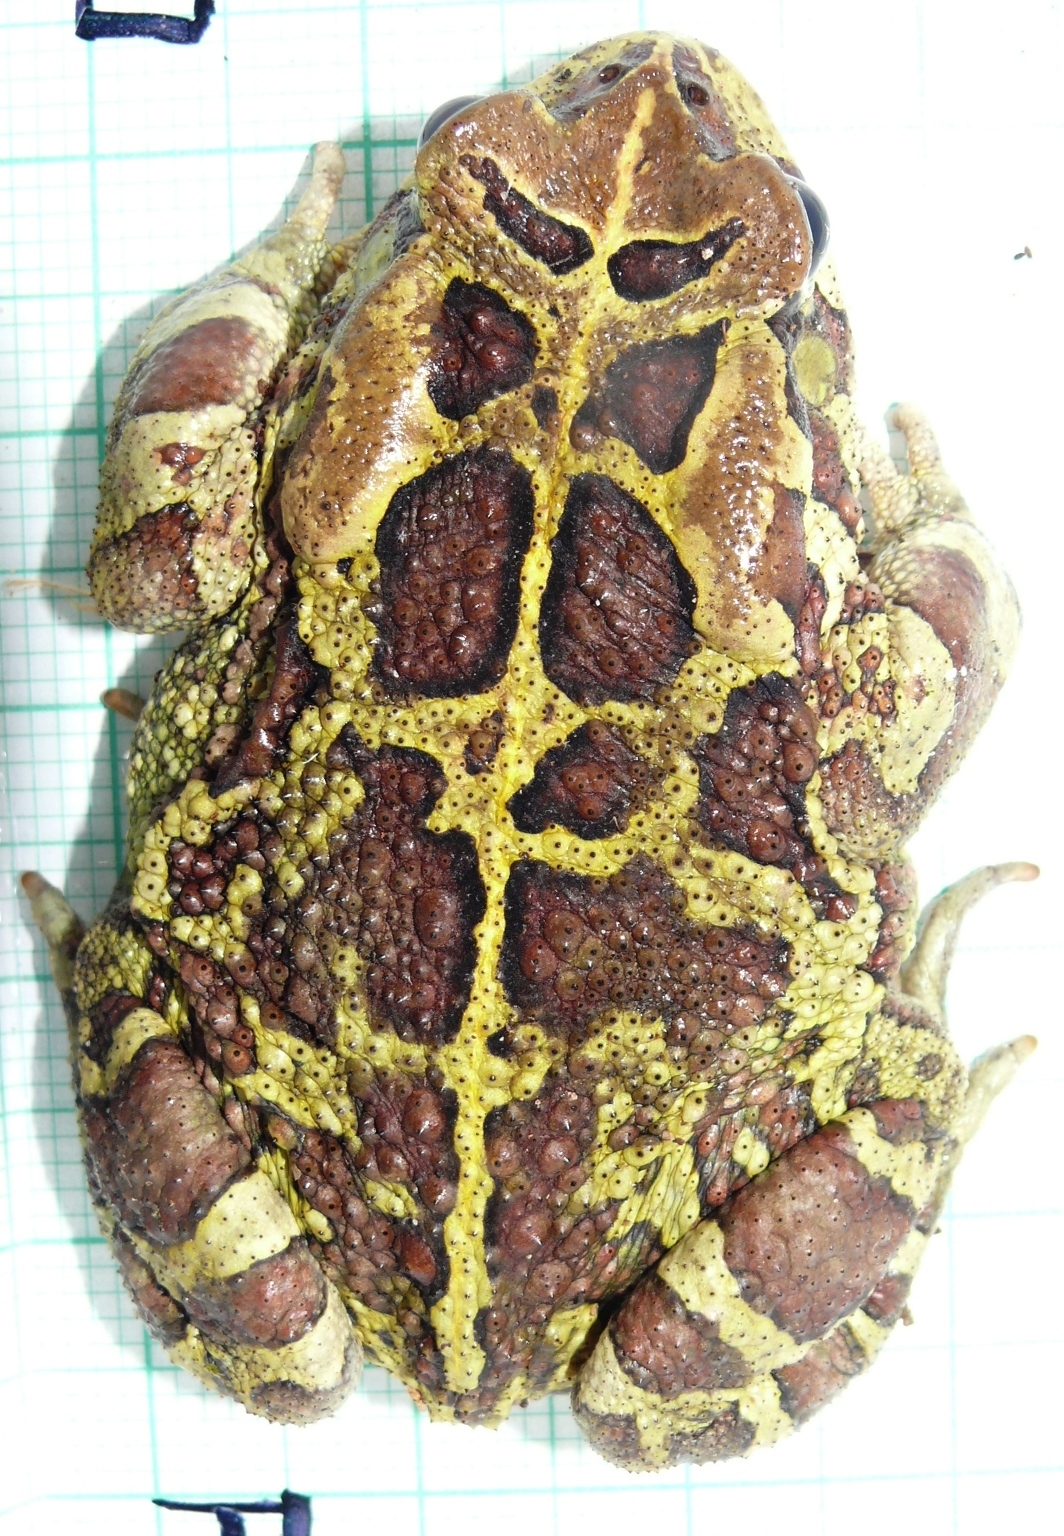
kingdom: Animalia
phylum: Chordata
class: Amphibia
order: Anura
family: Bufonidae
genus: Sclerophrys
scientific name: Sclerophrys pantherina
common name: Panther toad
